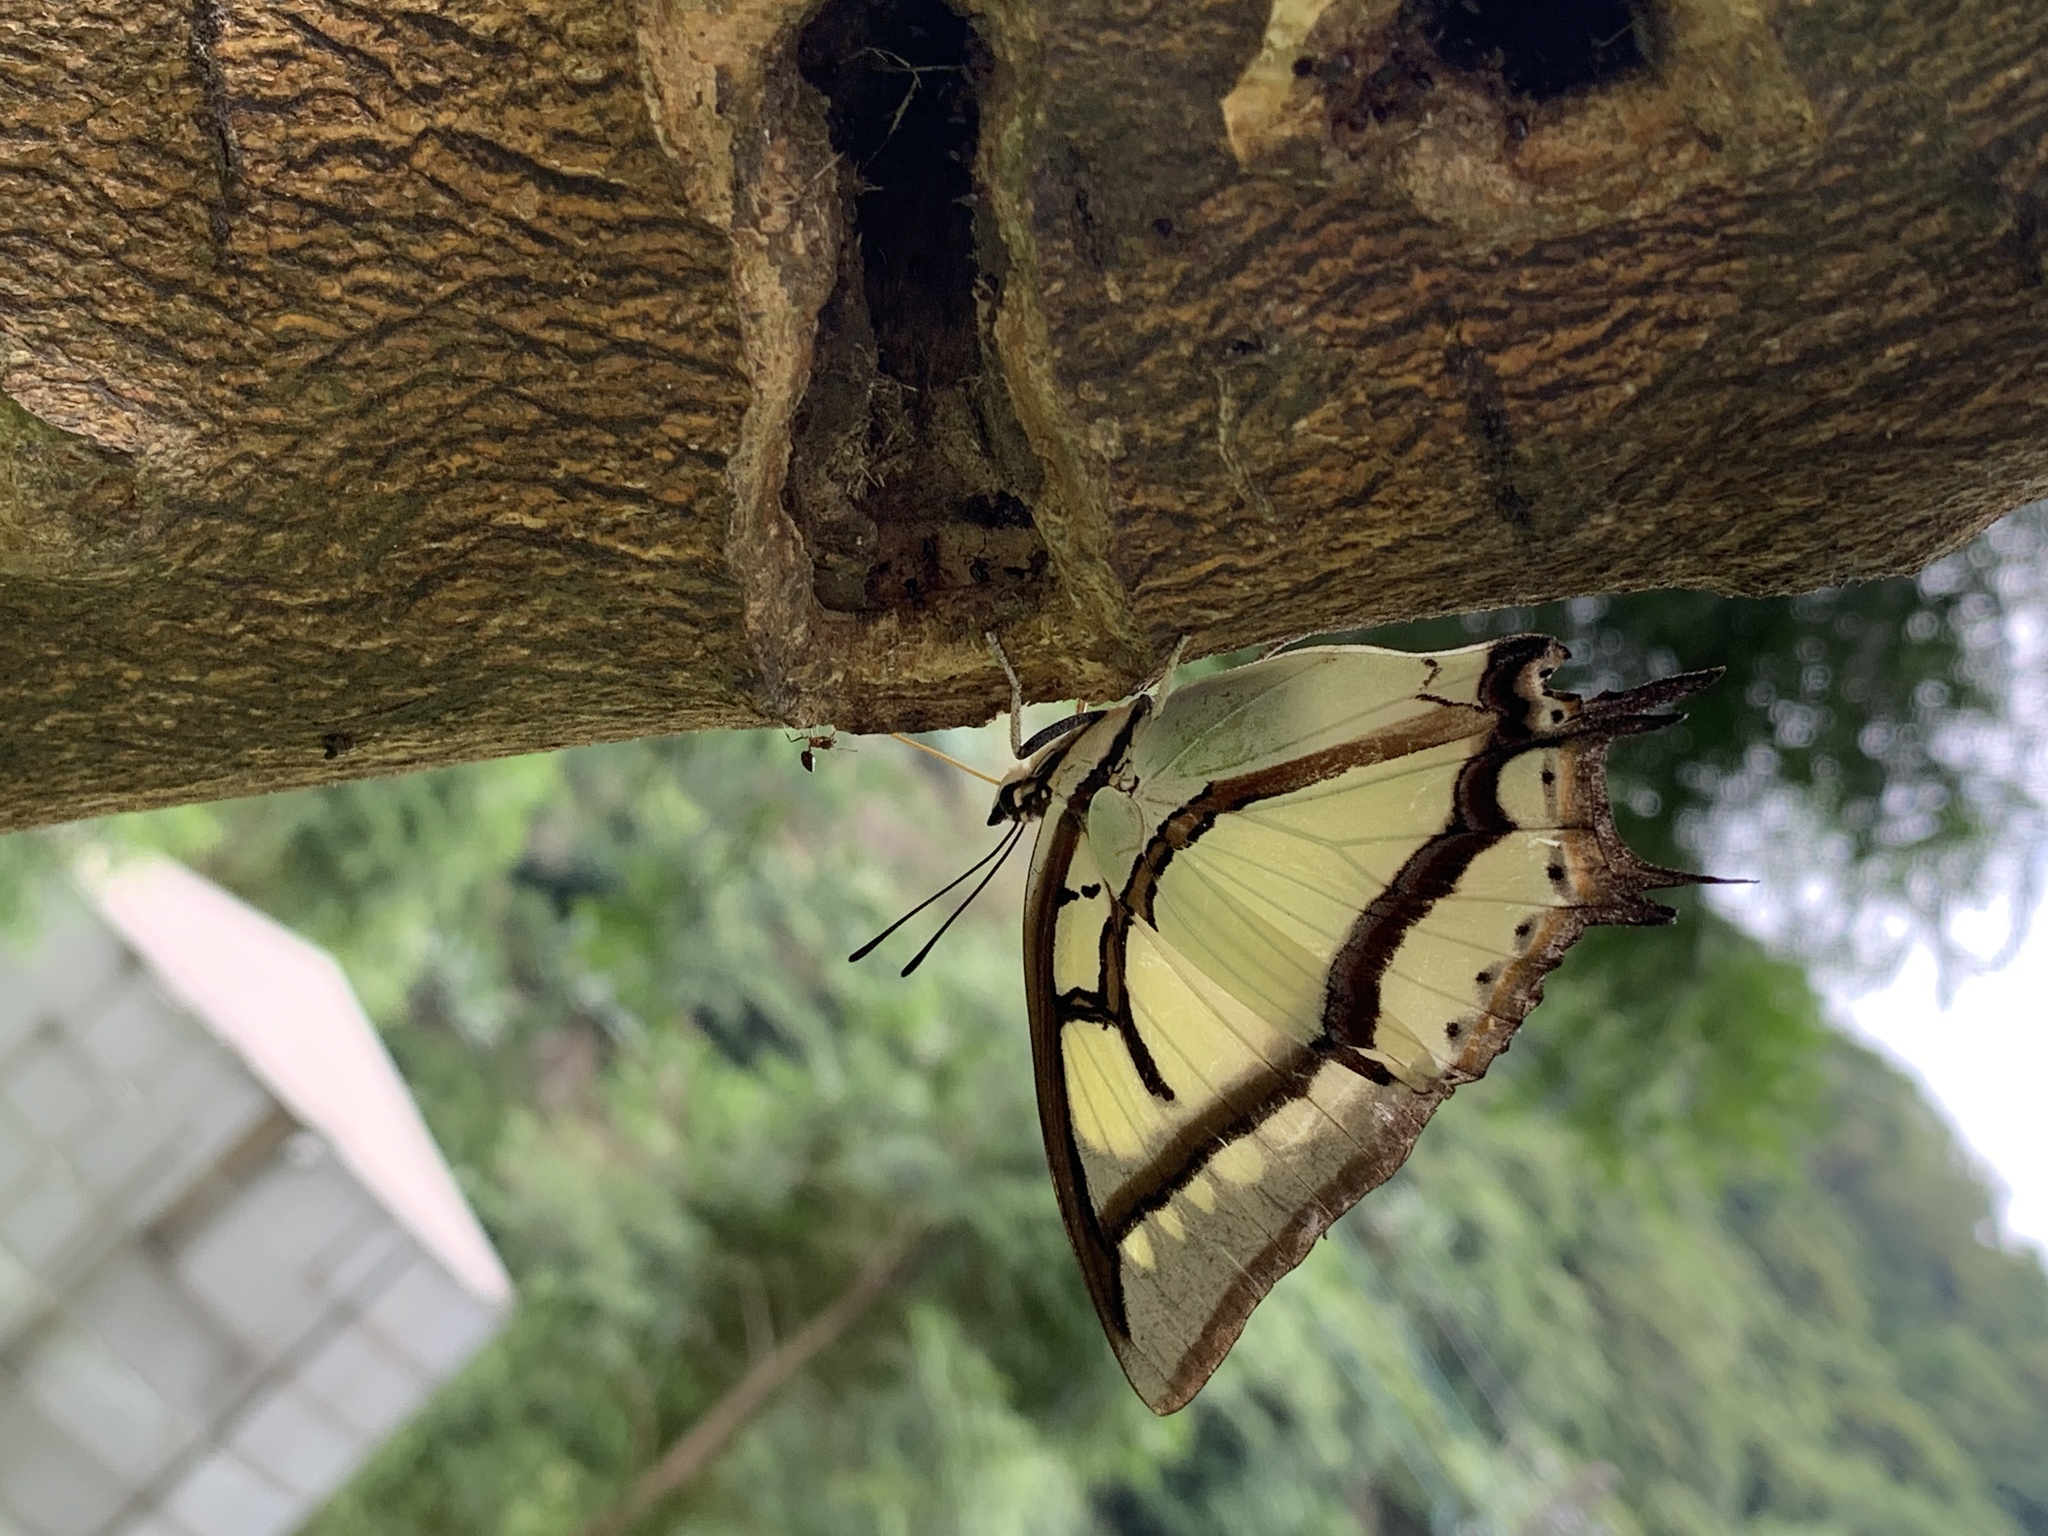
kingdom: Animalia
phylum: Arthropoda
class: Insecta
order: Lepidoptera
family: Nymphalidae
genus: Charaxes
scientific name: Charaxes narcaea
